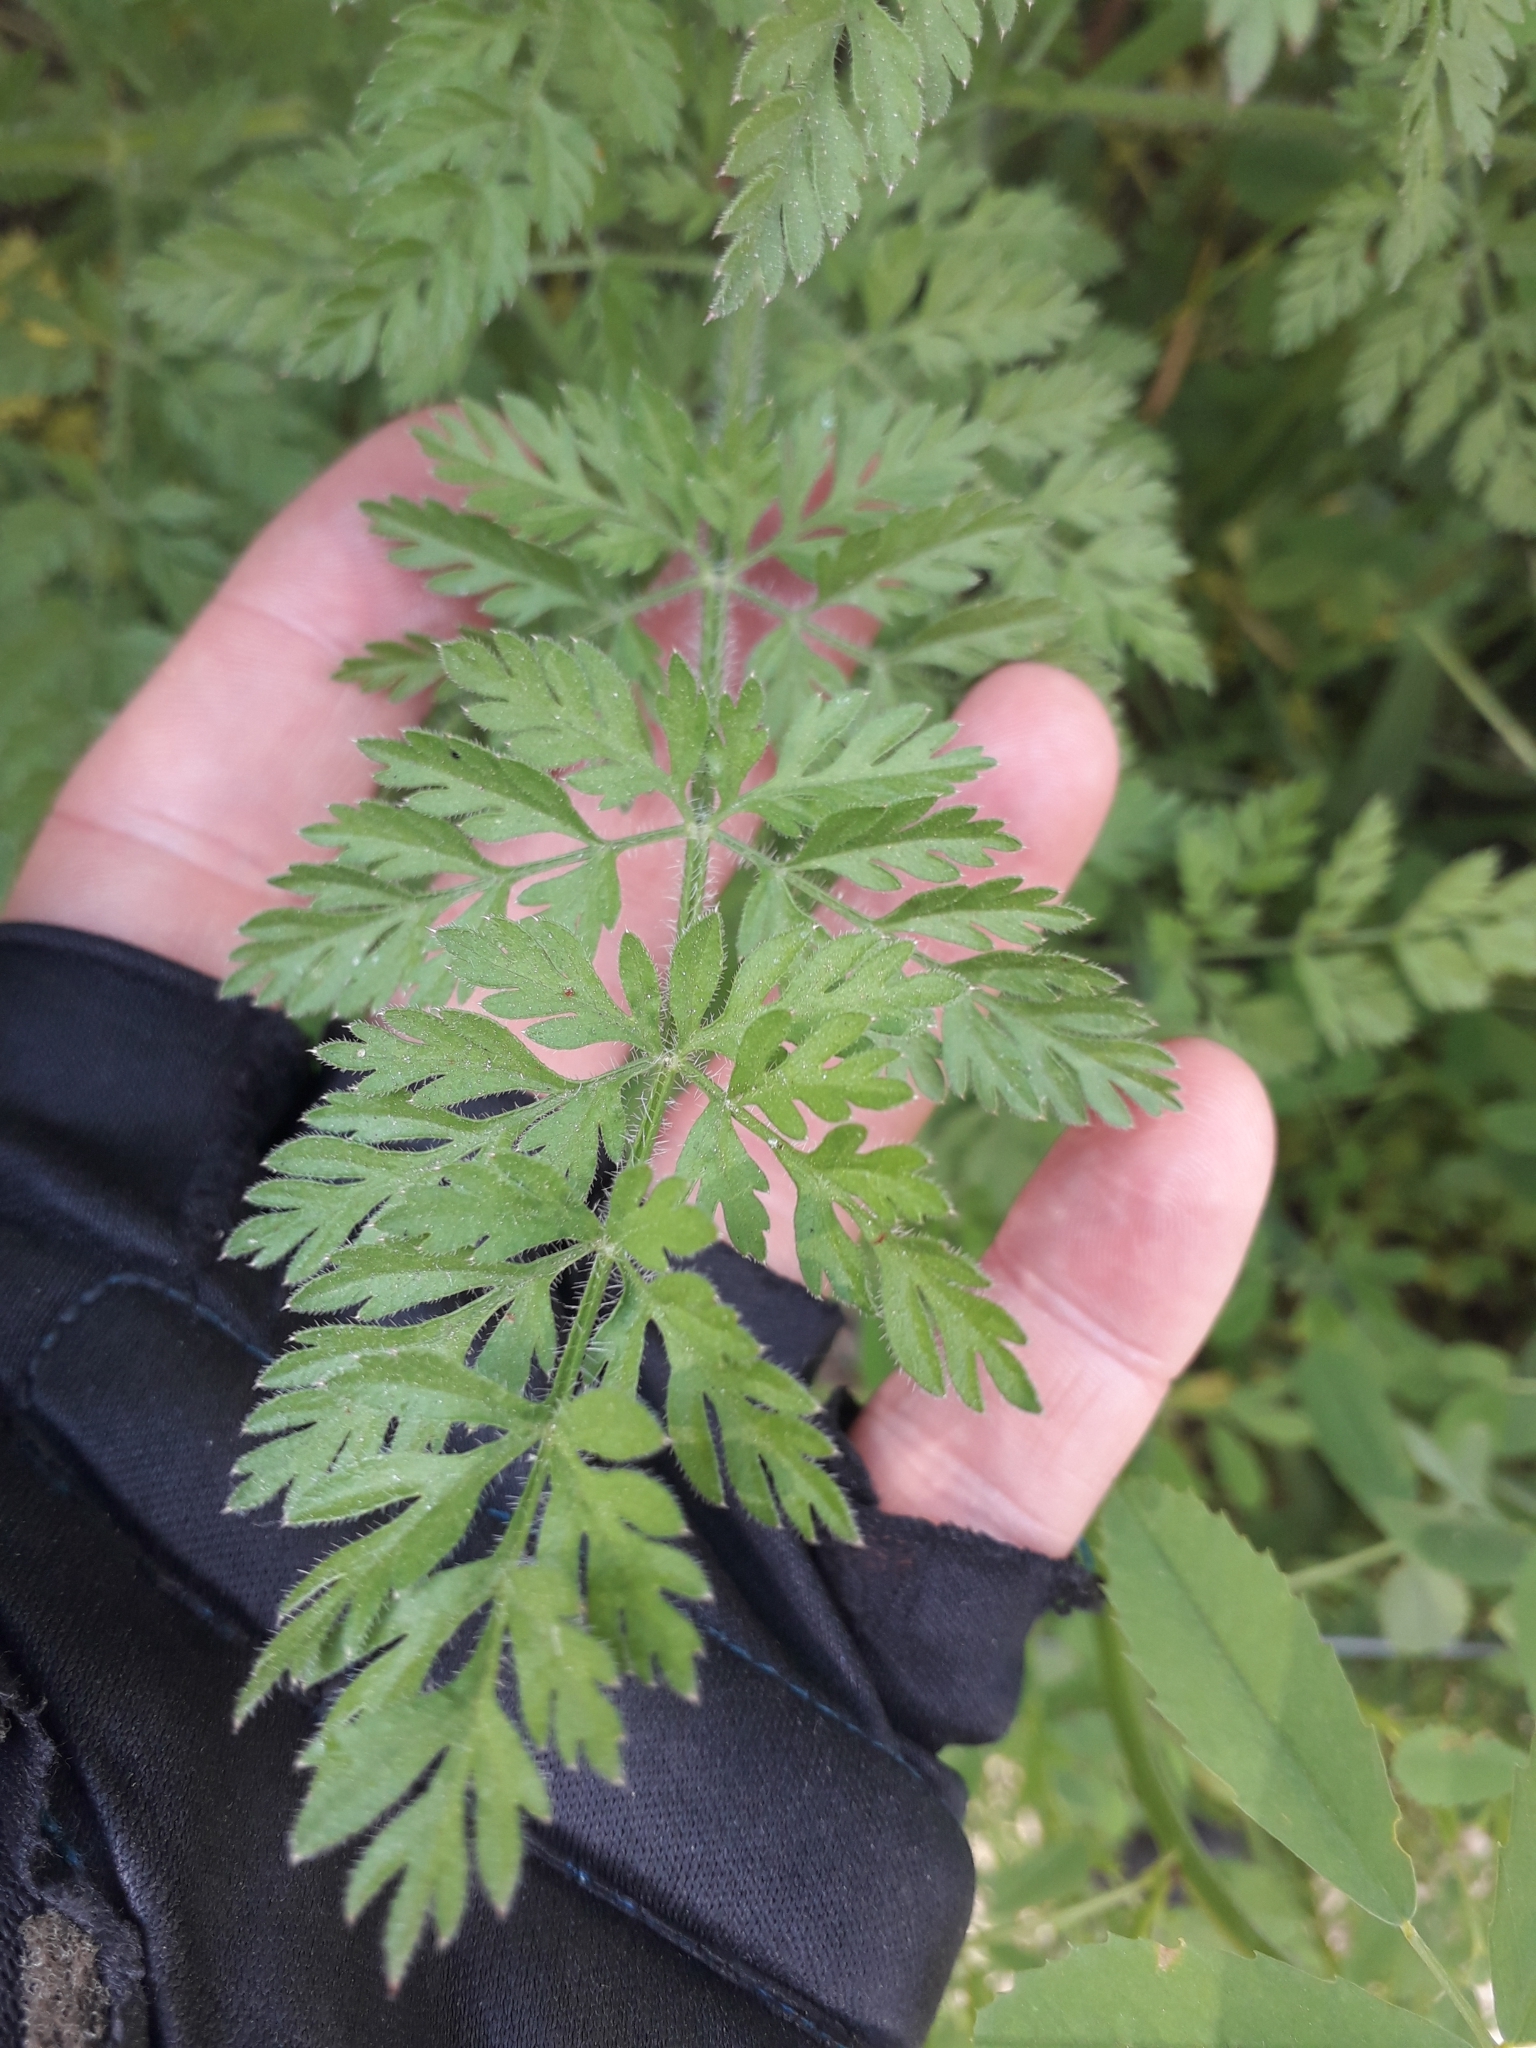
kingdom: Plantae
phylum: Tracheophyta
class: Magnoliopsida
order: Apiales
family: Apiaceae
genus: Daucus
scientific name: Daucus carota
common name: Wild carrot
